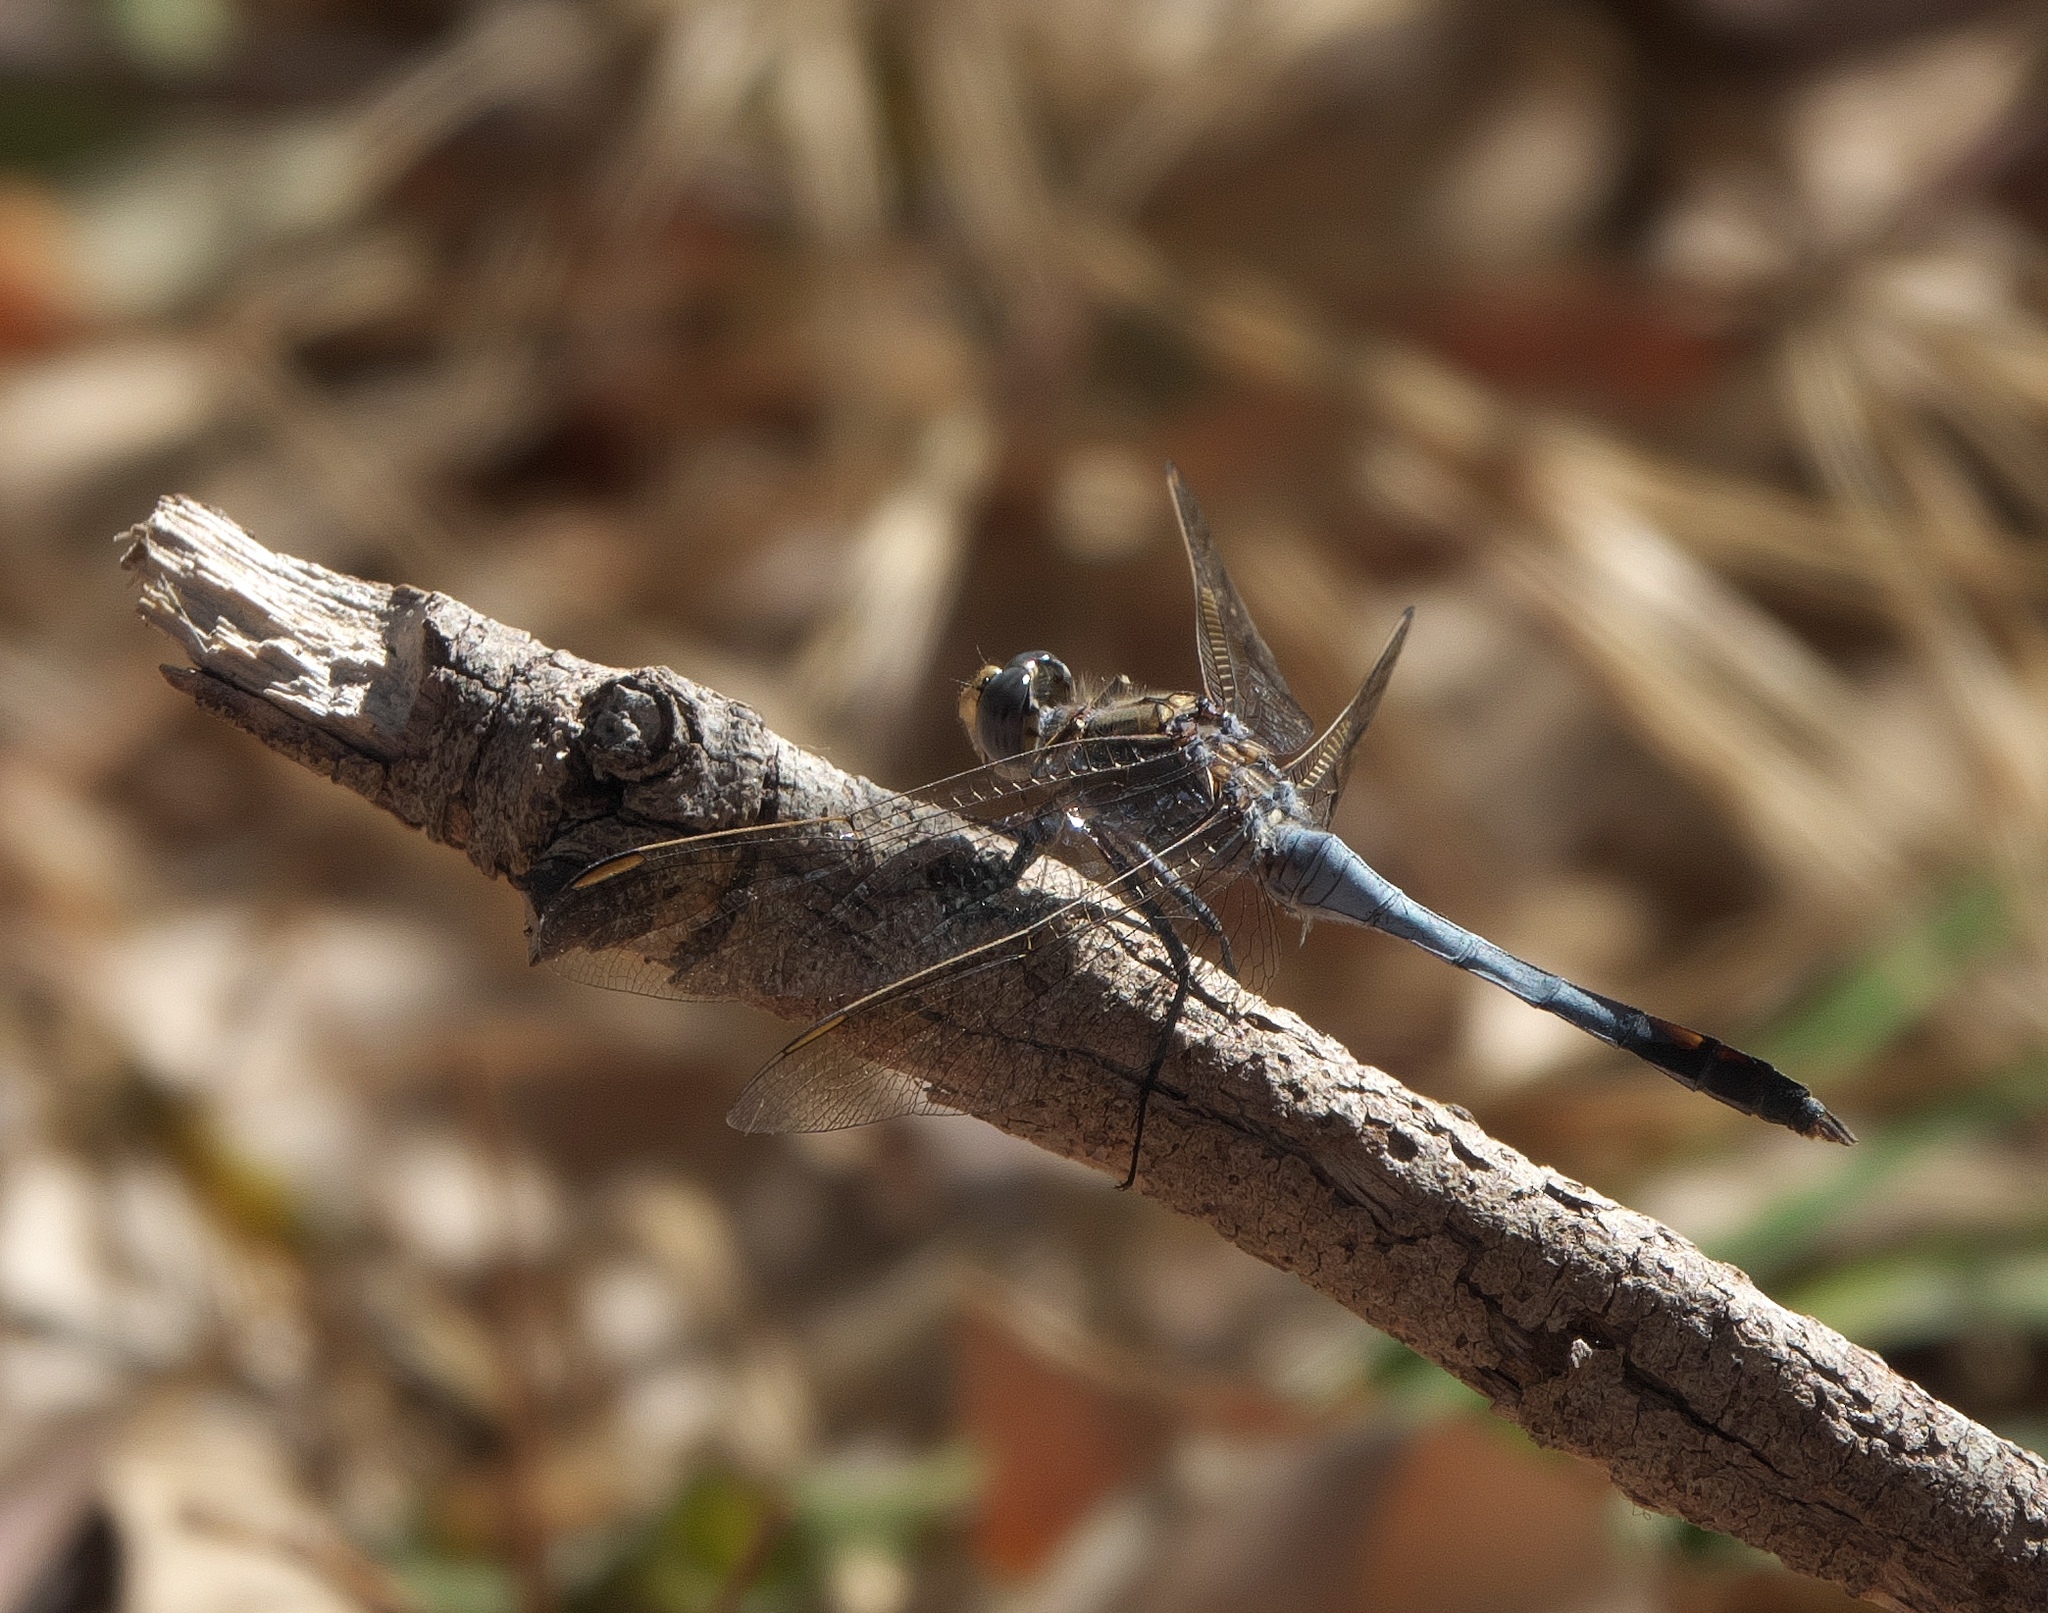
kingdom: Animalia
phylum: Arthropoda
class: Insecta
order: Odonata
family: Libellulidae
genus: Orthetrum
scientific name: Orthetrum caledonicum
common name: Blue skimmer
